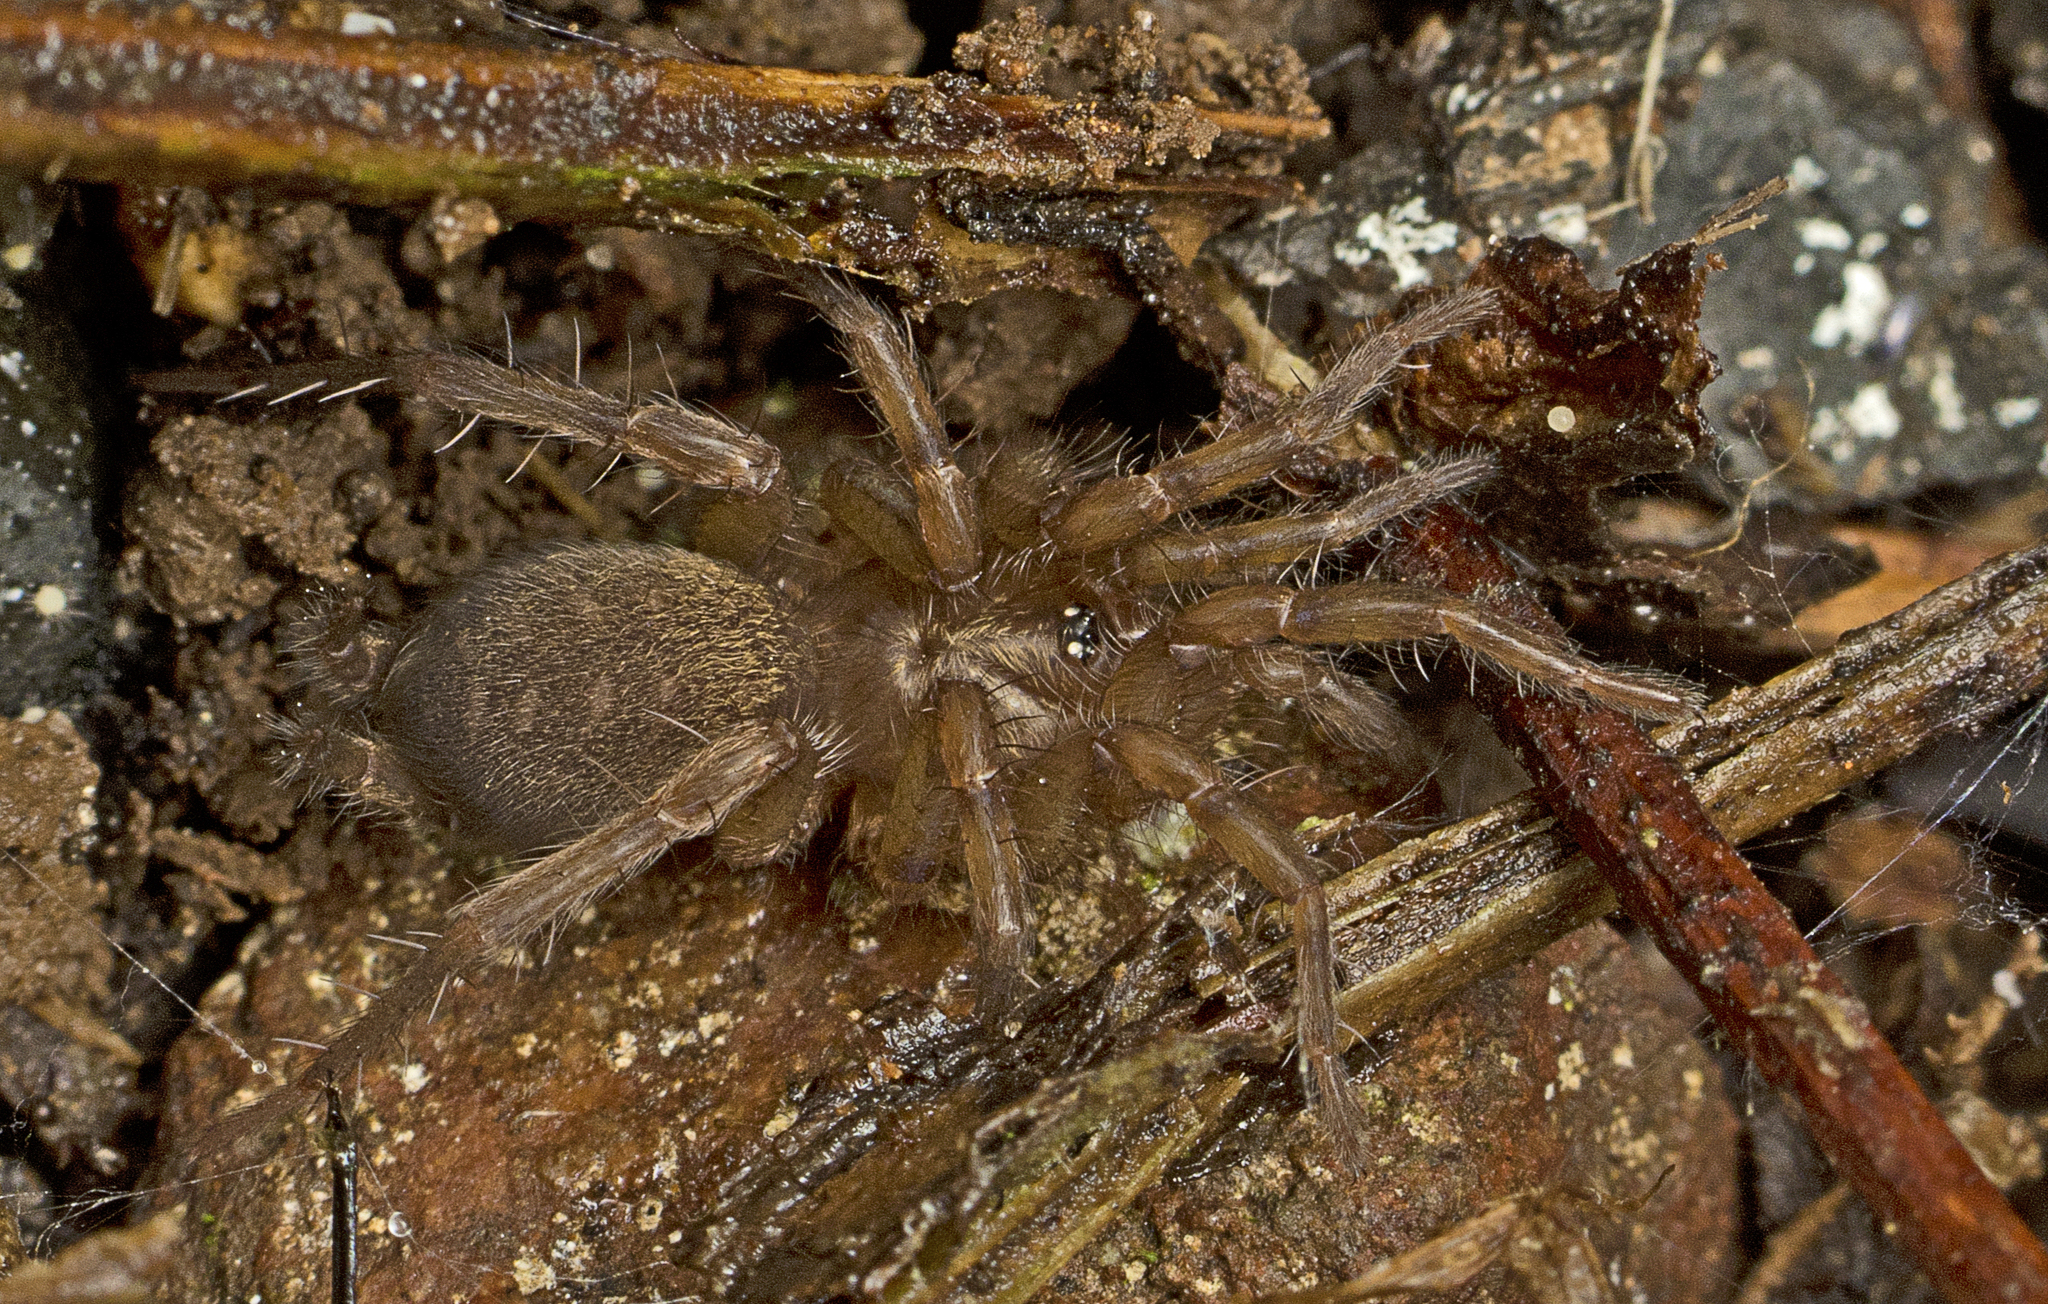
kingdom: Animalia
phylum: Arthropoda
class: Arachnida
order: Araneae
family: Euagridae
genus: Namirea
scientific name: Namirea planipes
